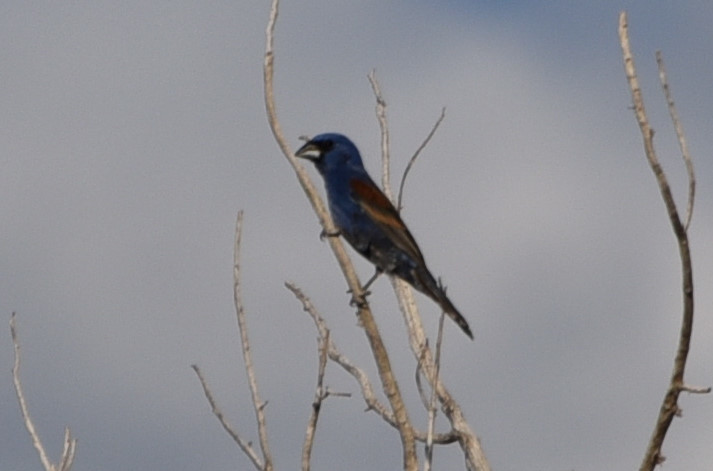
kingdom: Animalia
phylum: Chordata
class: Aves
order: Passeriformes
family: Cardinalidae
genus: Passerina
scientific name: Passerina caerulea
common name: Blue grosbeak
